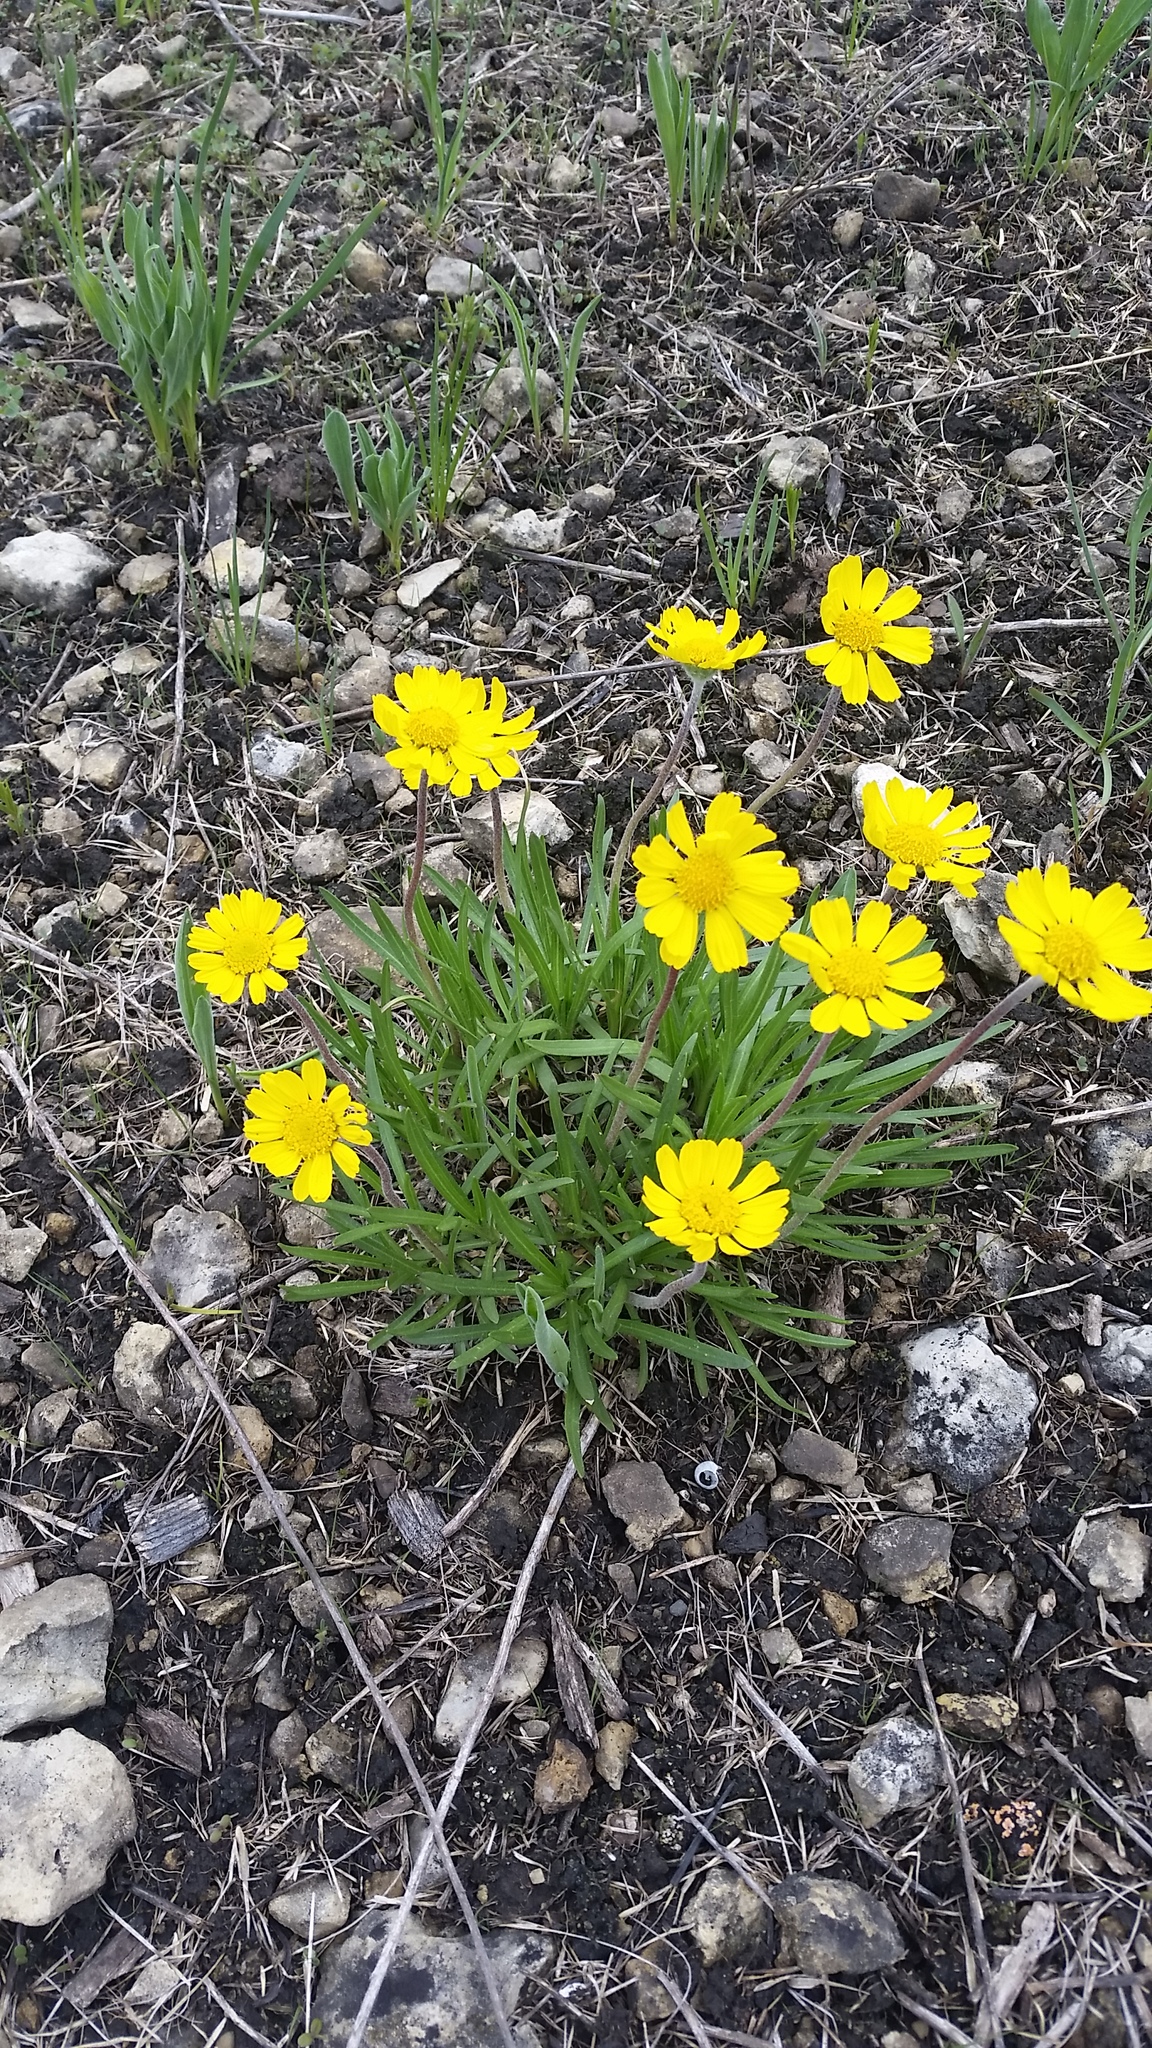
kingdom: Plantae
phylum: Tracheophyta
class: Magnoliopsida
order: Asterales
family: Asteraceae
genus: Tetraneuris
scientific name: Tetraneuris herbacea
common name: Lakeside daisy
